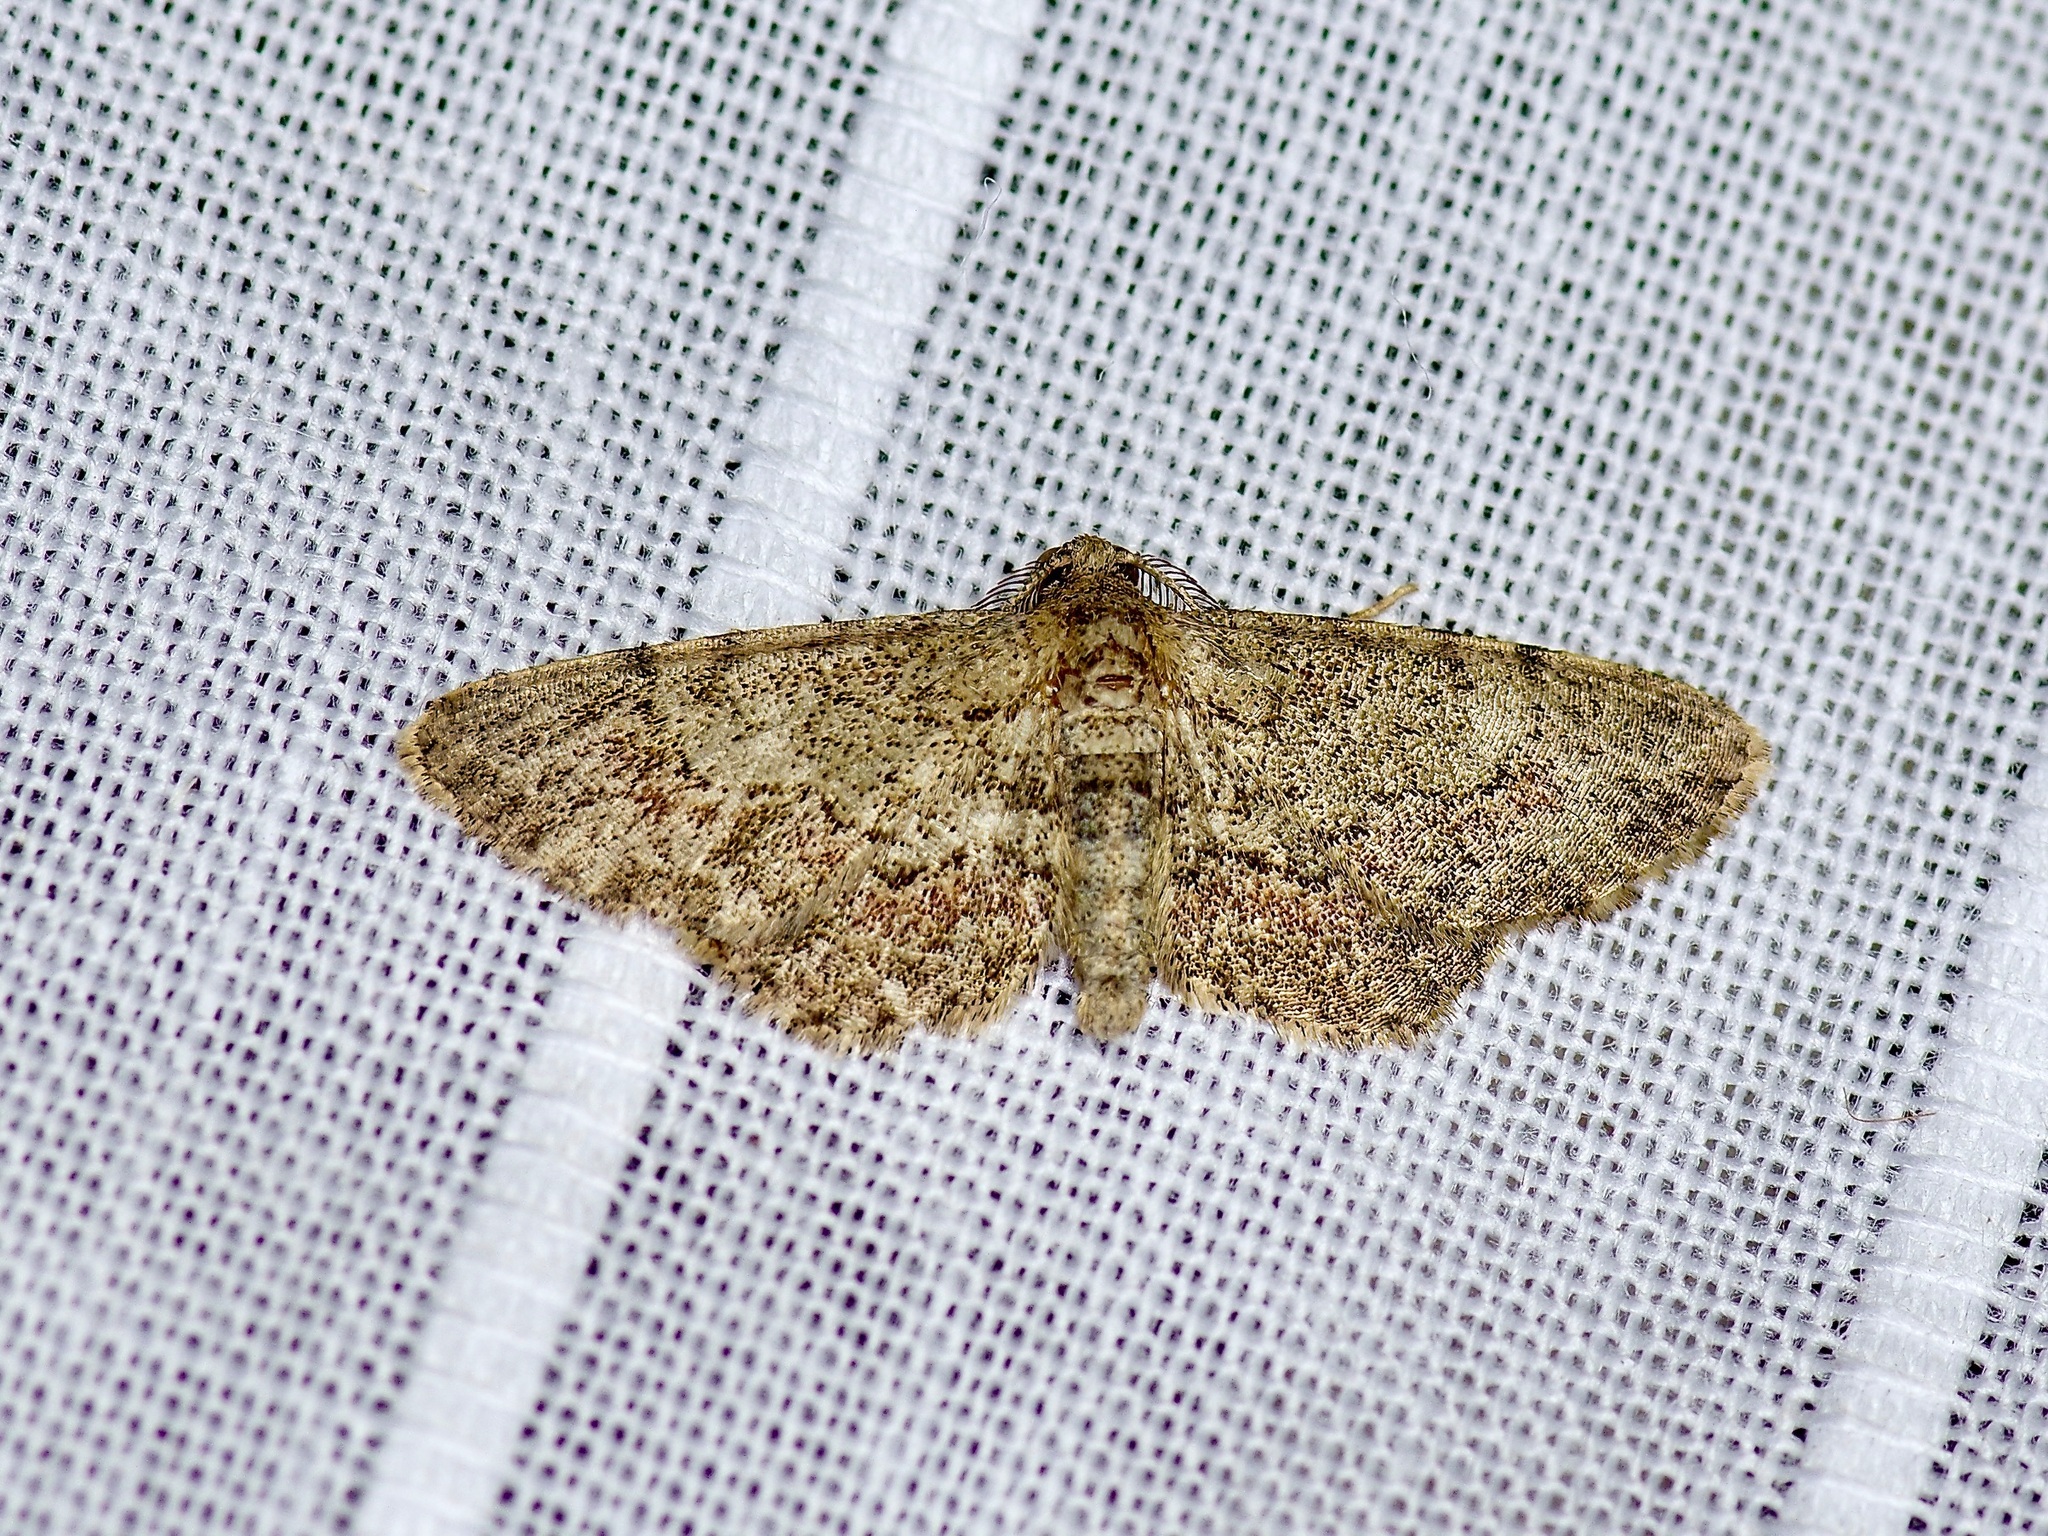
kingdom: Animalia
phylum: Arthropoda
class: Insecta
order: Lepidoptera
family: Geometridae
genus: Glenoides
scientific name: Glenoides texanaria
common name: Texas gray
